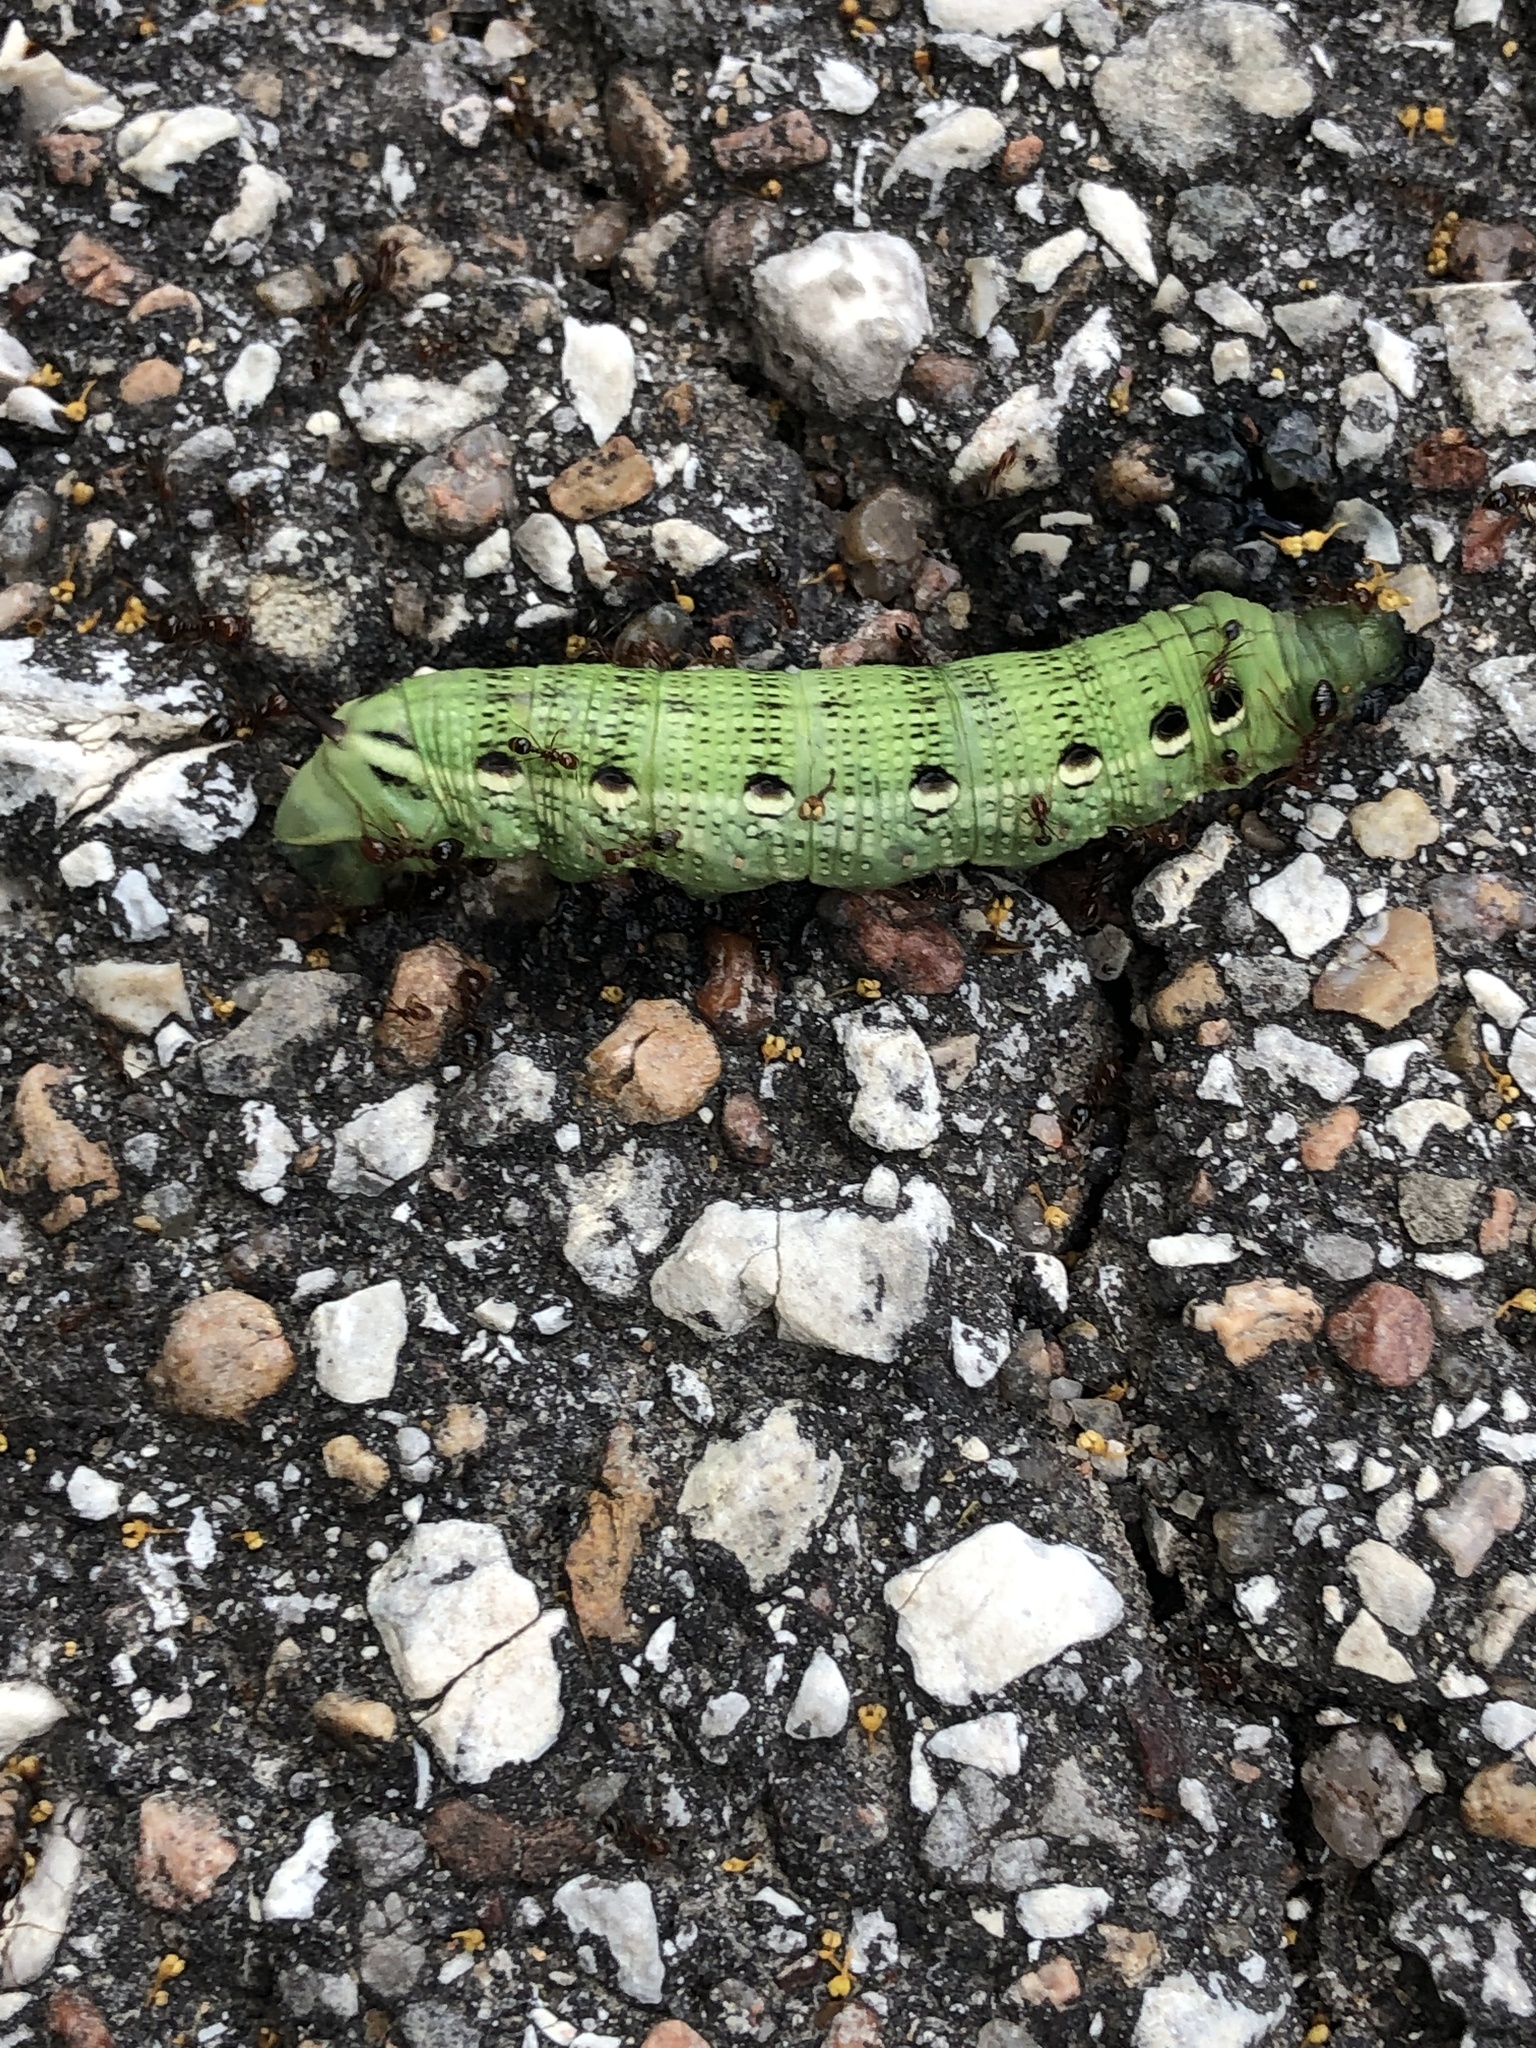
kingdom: Animalia
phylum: Arthropoda
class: Insecta
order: Lepidoptera
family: Sphingidae
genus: Xylophanes
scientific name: Xylophanes tersa
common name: Tersa sphinx
